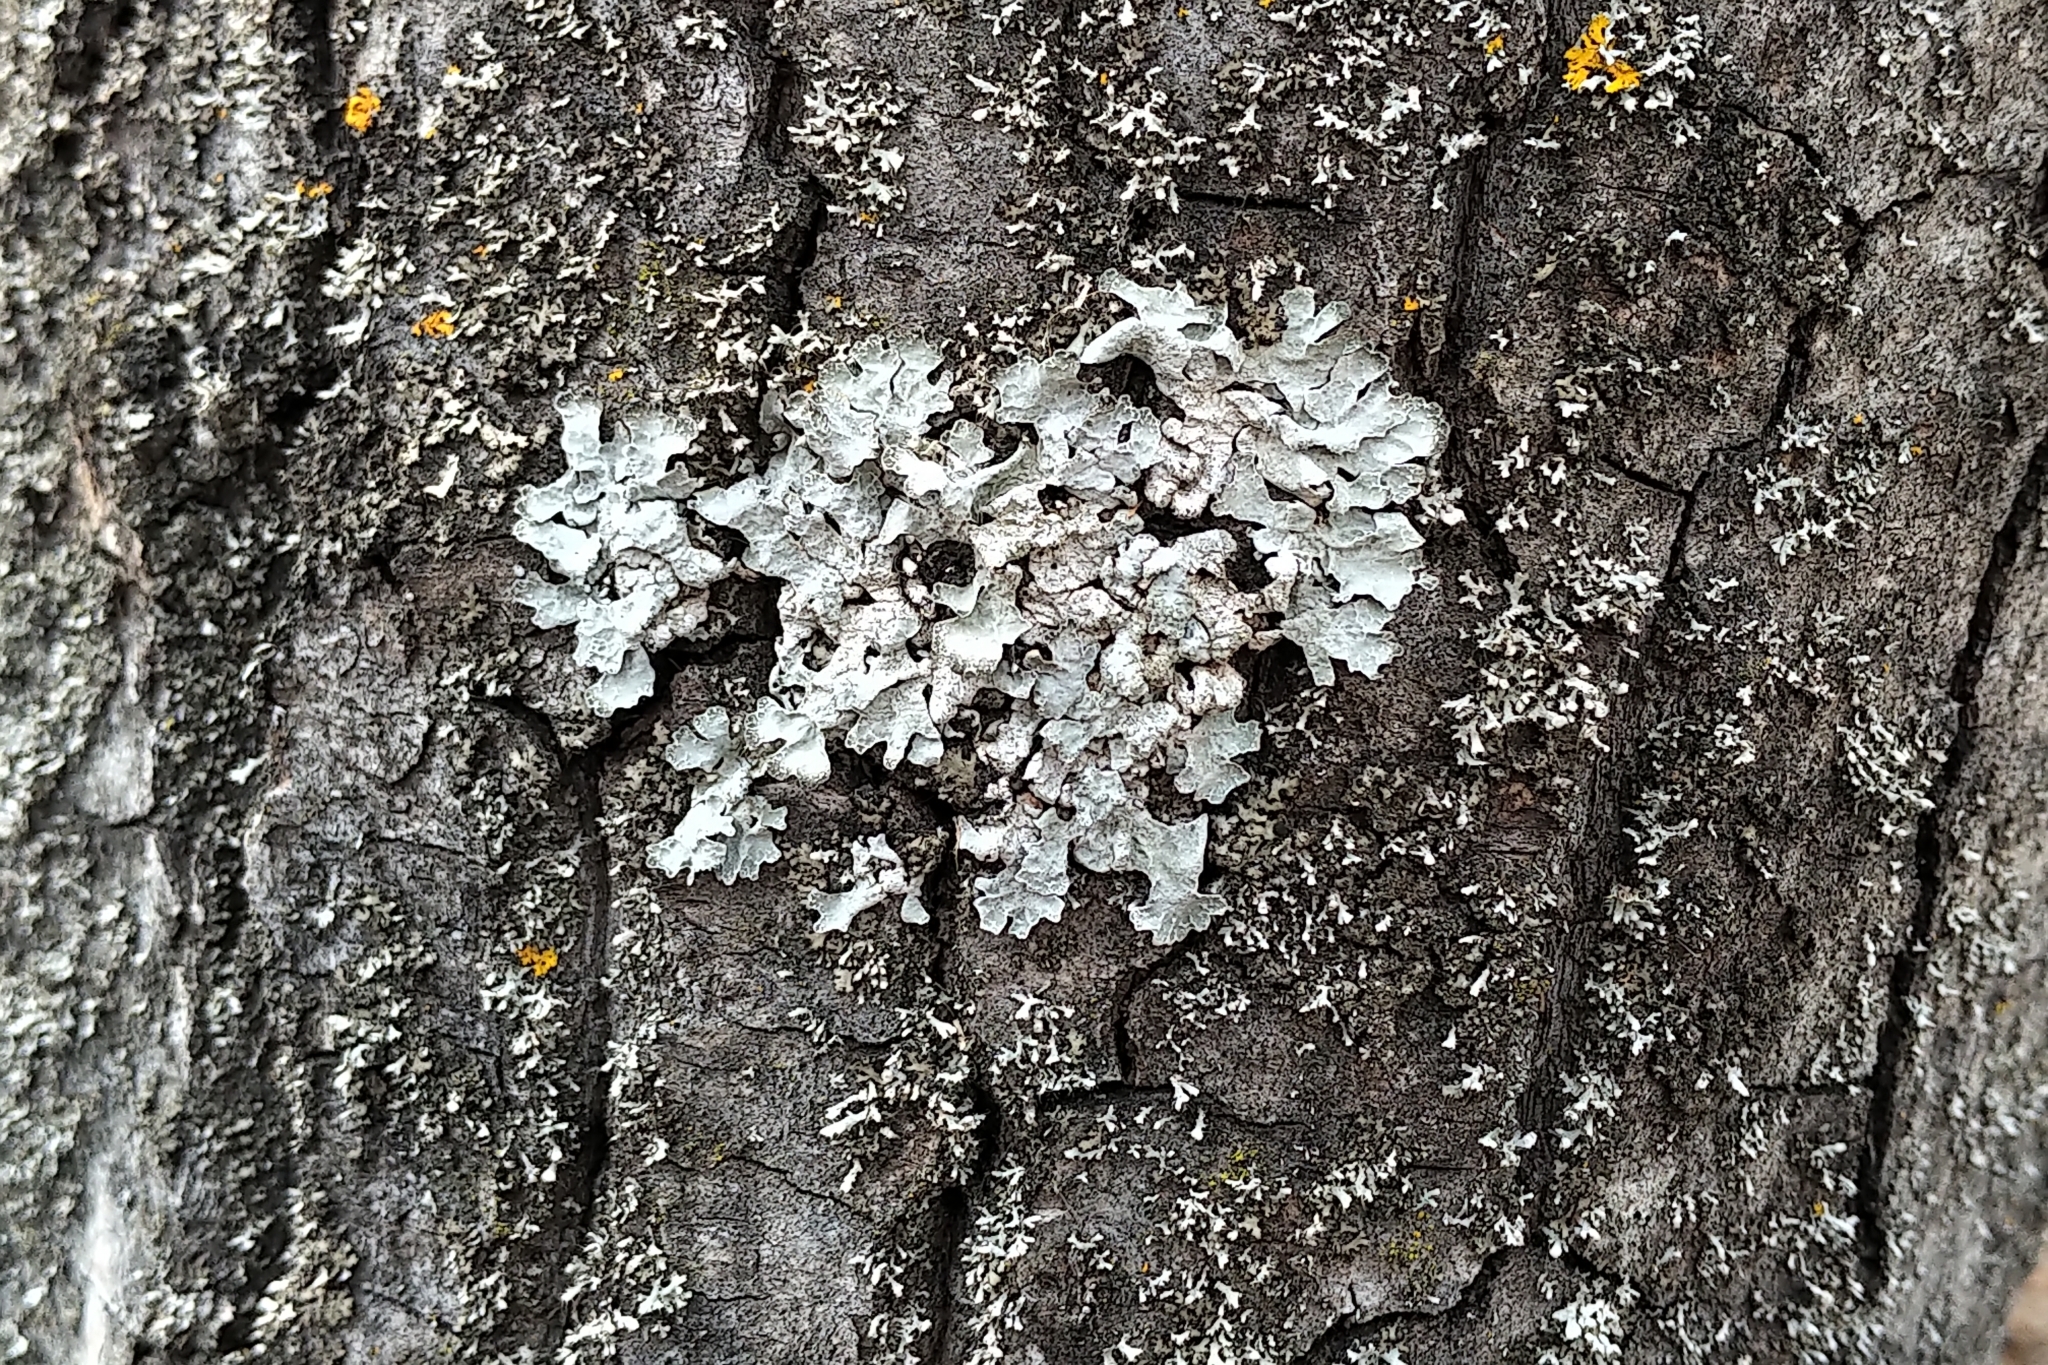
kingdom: Fungi
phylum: Ascomycota
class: Lecanoromycetes
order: Lecanorales
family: Parmeliaceae
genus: Parmelia
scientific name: Parmelia sulcata
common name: Netted shield lichen
